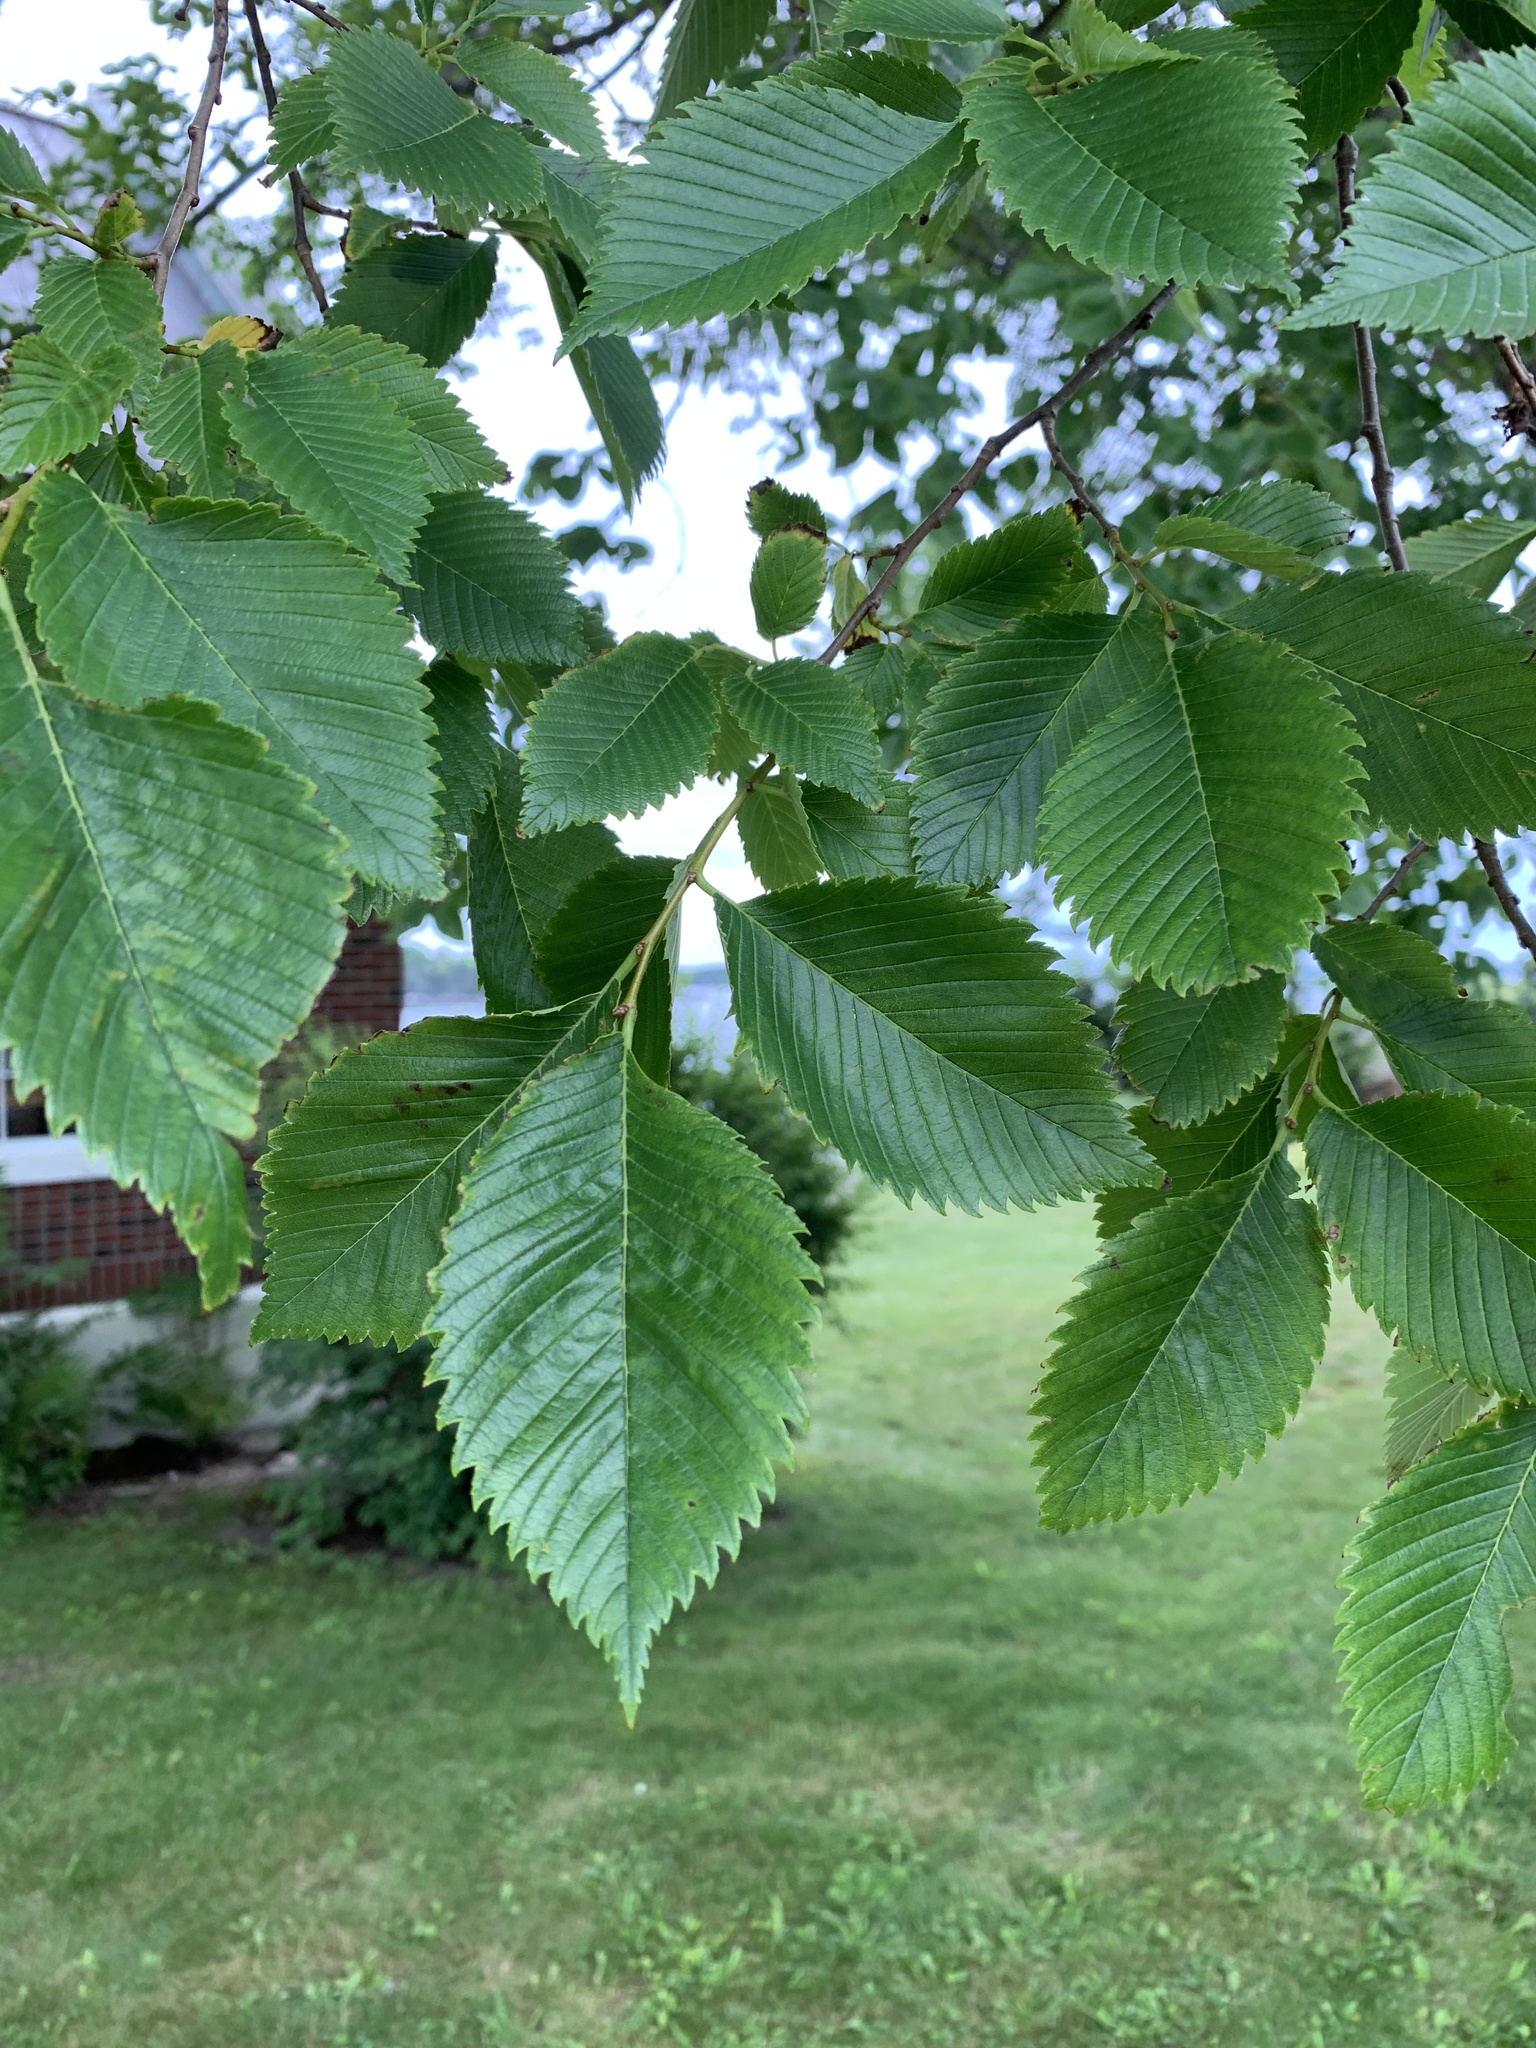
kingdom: Plantae
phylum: Tracheophyta
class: Magnoliopsida
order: Rosales
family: Ulmaceae
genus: Ulmus
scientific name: Ulmus americana
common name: American elm
